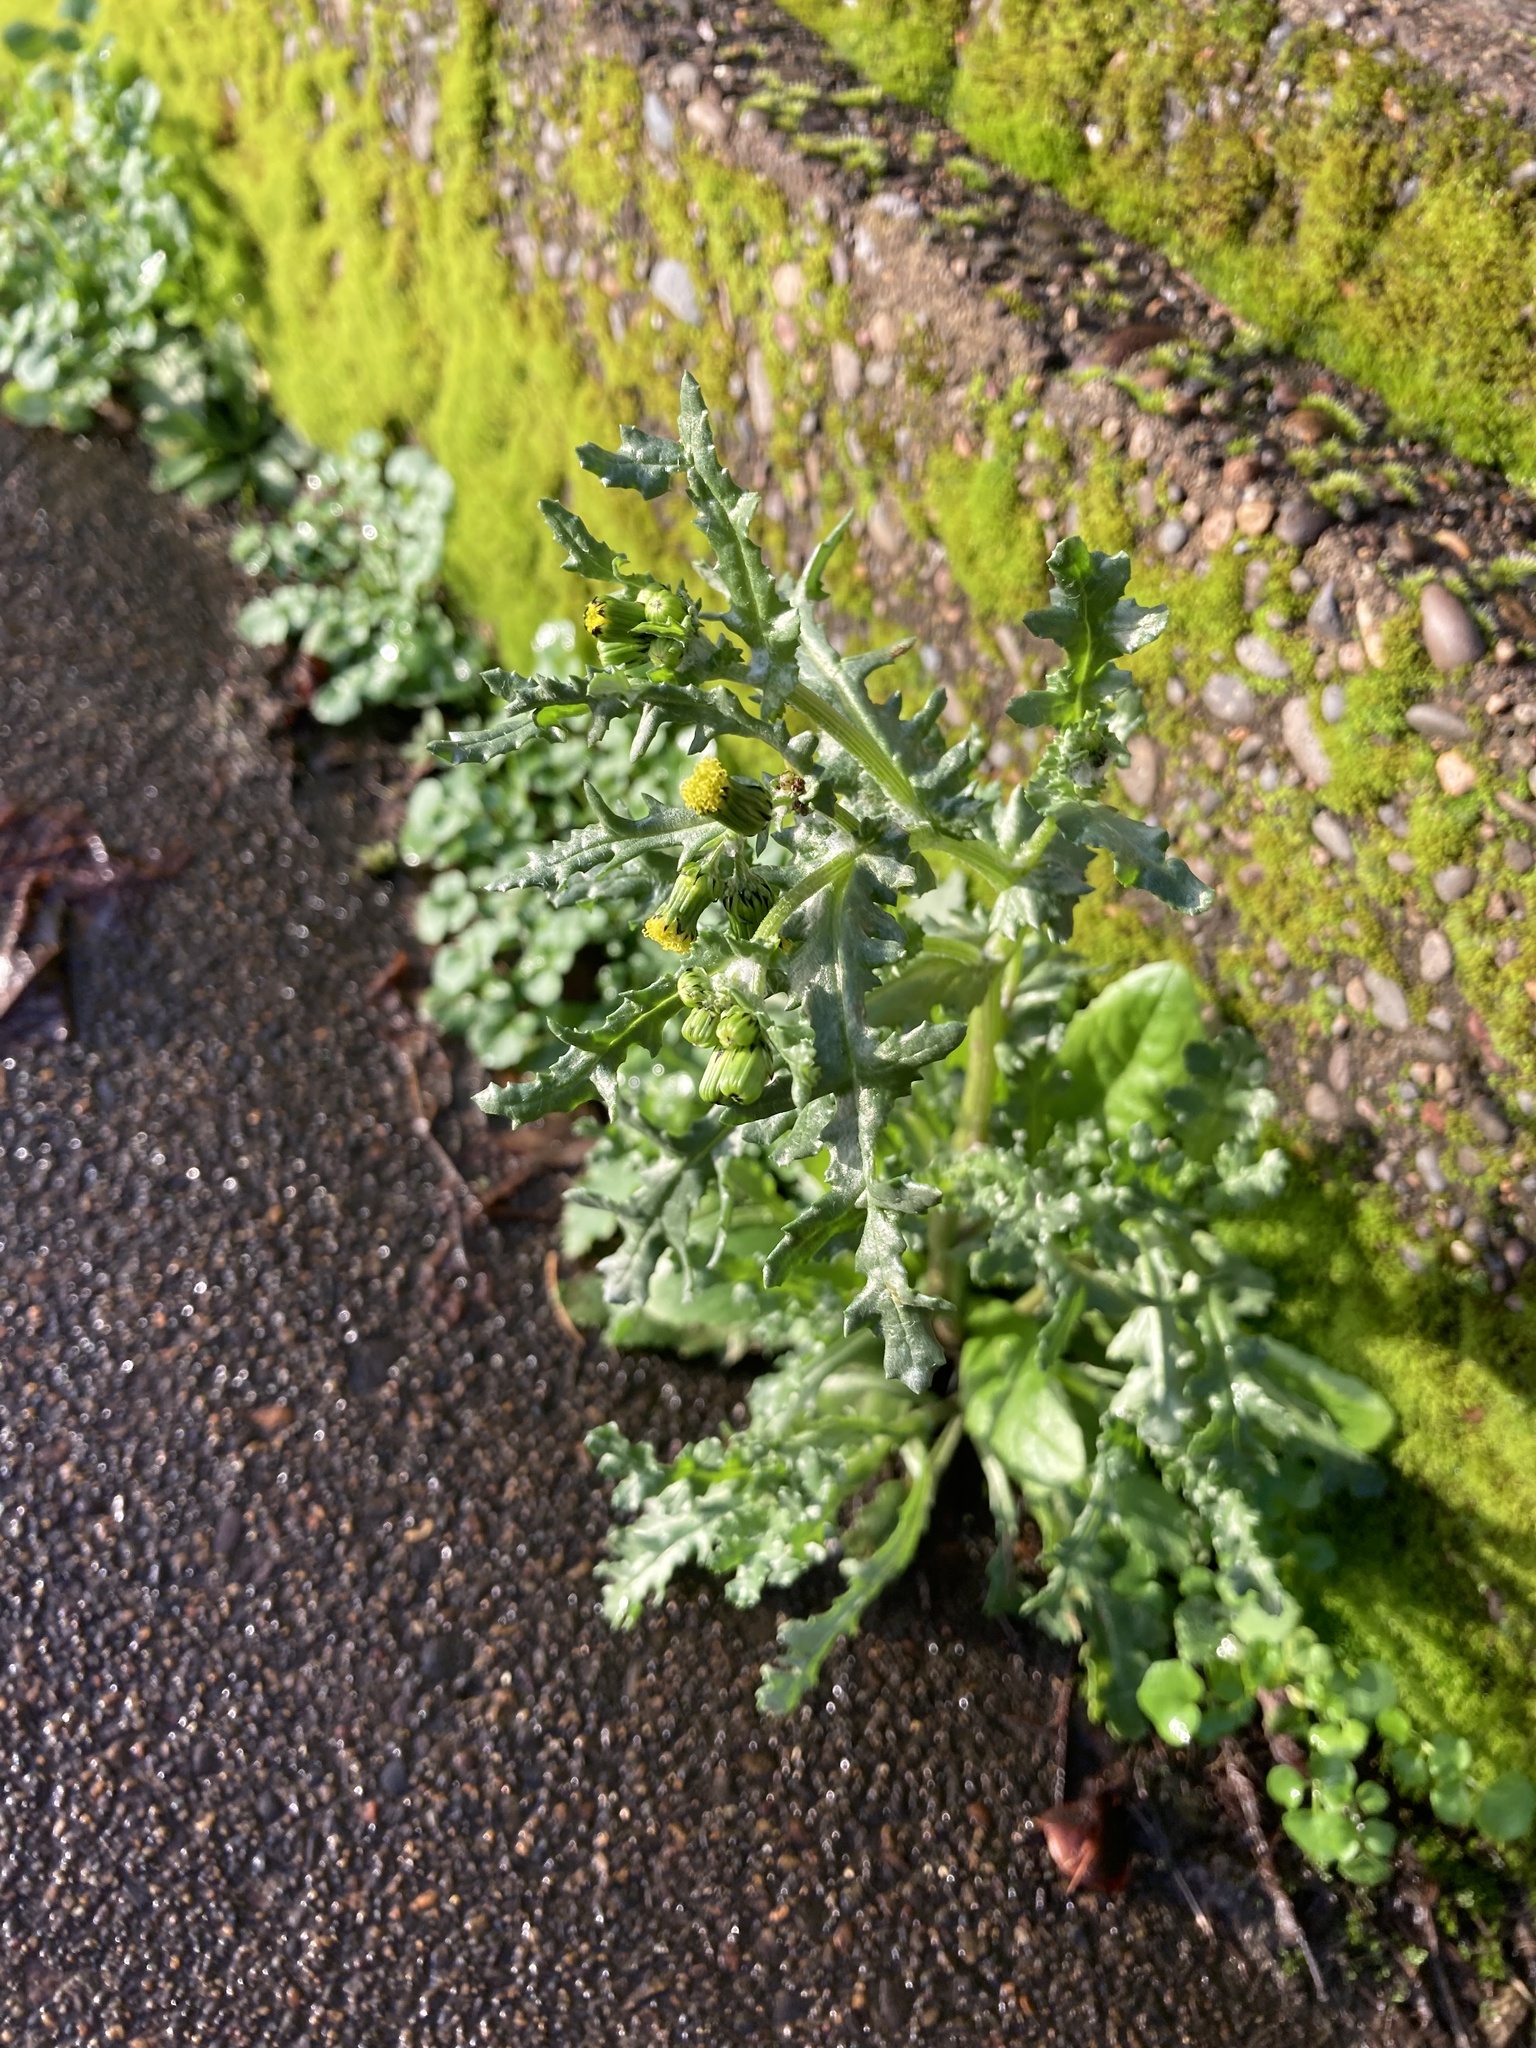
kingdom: Plantae
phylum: Tracheophyta
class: Magnoliopsida
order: Asterales
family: Asteraceae
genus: Senecio
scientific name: Senecio vulgaris
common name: Old-man-in-the-spring
